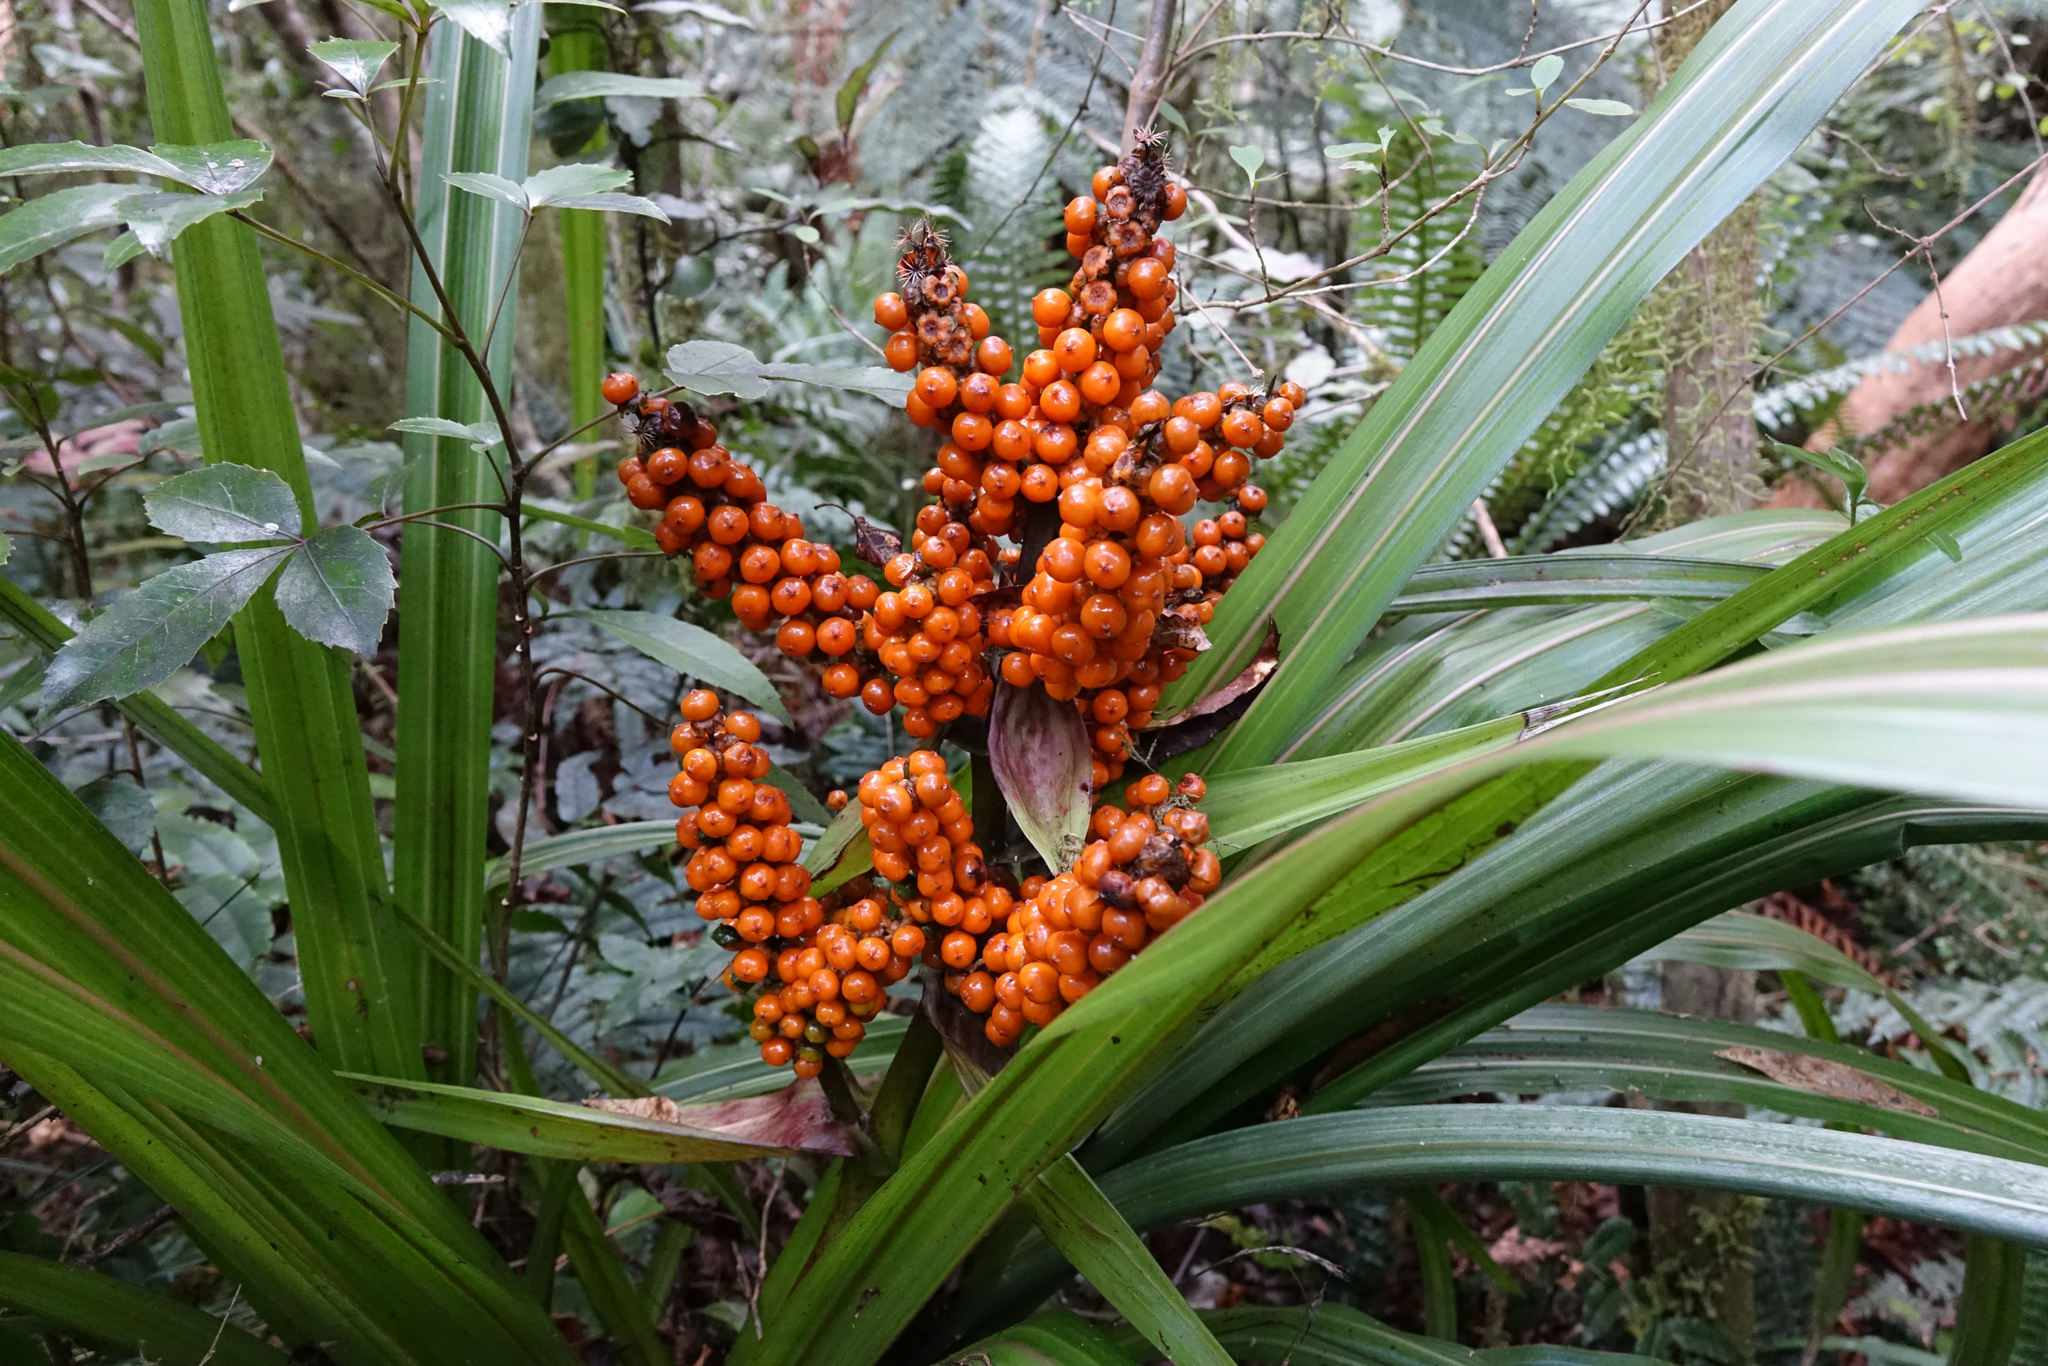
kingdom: Plantae
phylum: Tracheophyta
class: Liliopsida
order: Asparagales
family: Asteliaceae
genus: Astelia
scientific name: Astelia fragrans
